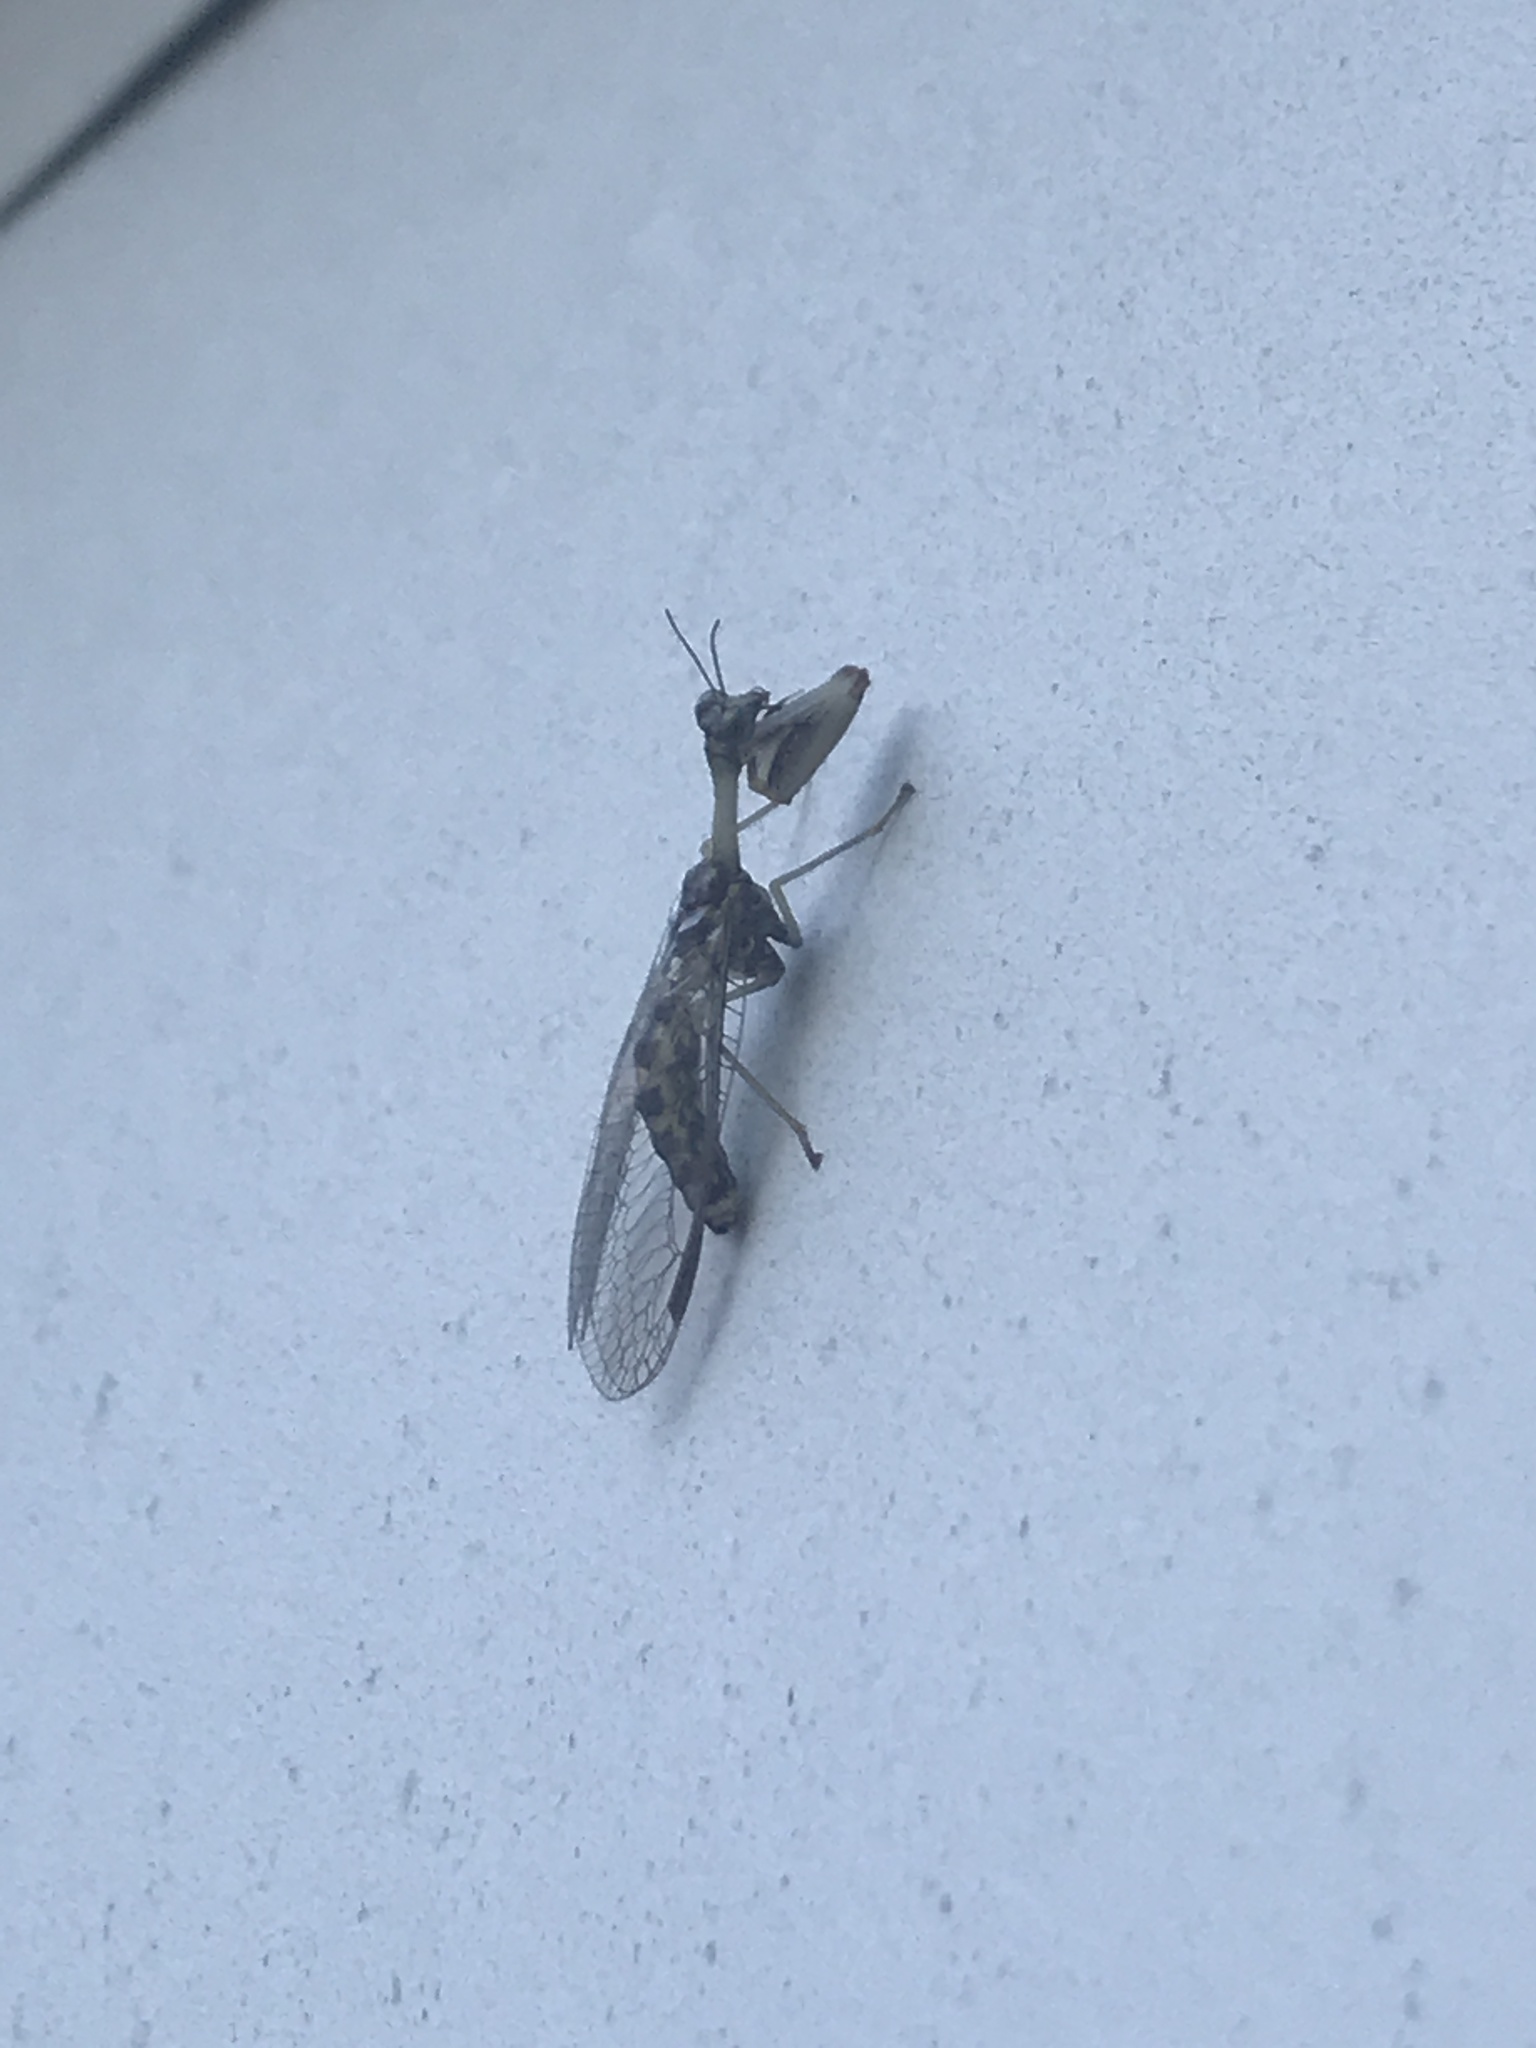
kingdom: Animalia
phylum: Arthropoda
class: Insecta
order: Neuroptera
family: Mantispidae
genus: Dicromantispa
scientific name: Dicromantispa sayi
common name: Say's mantidfly
